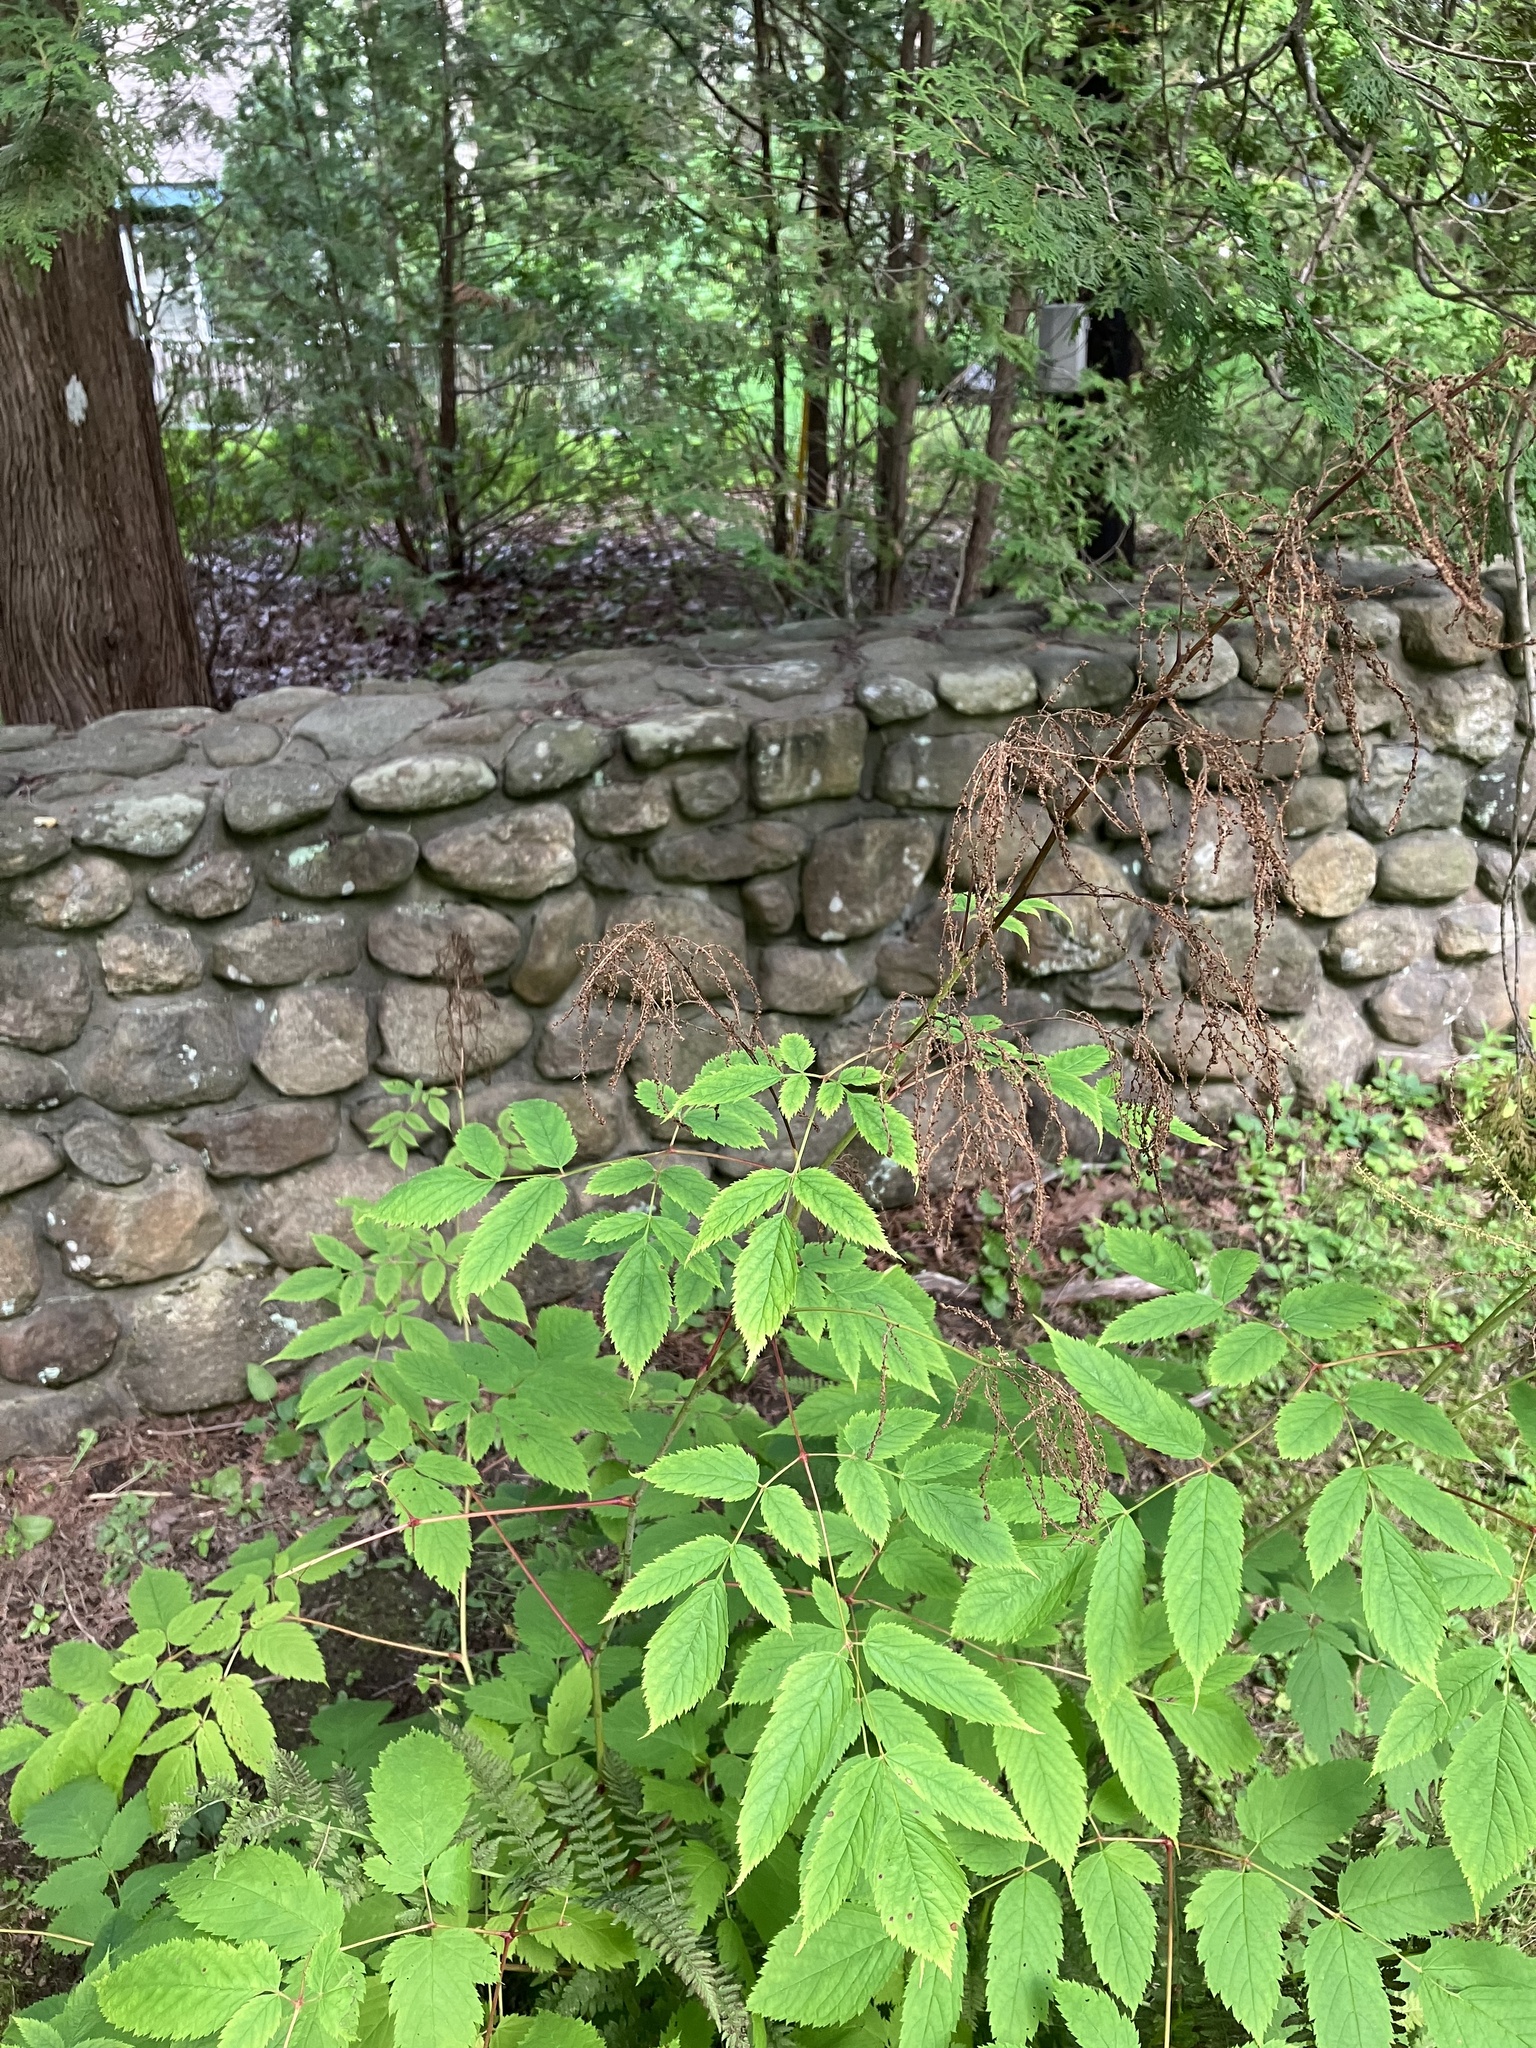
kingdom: Plantae
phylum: Tracheophyta
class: Magnoliopsida
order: Rosales
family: Rosaceae
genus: Aruncus
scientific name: Aruncus dioicus
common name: Buck's-beard
